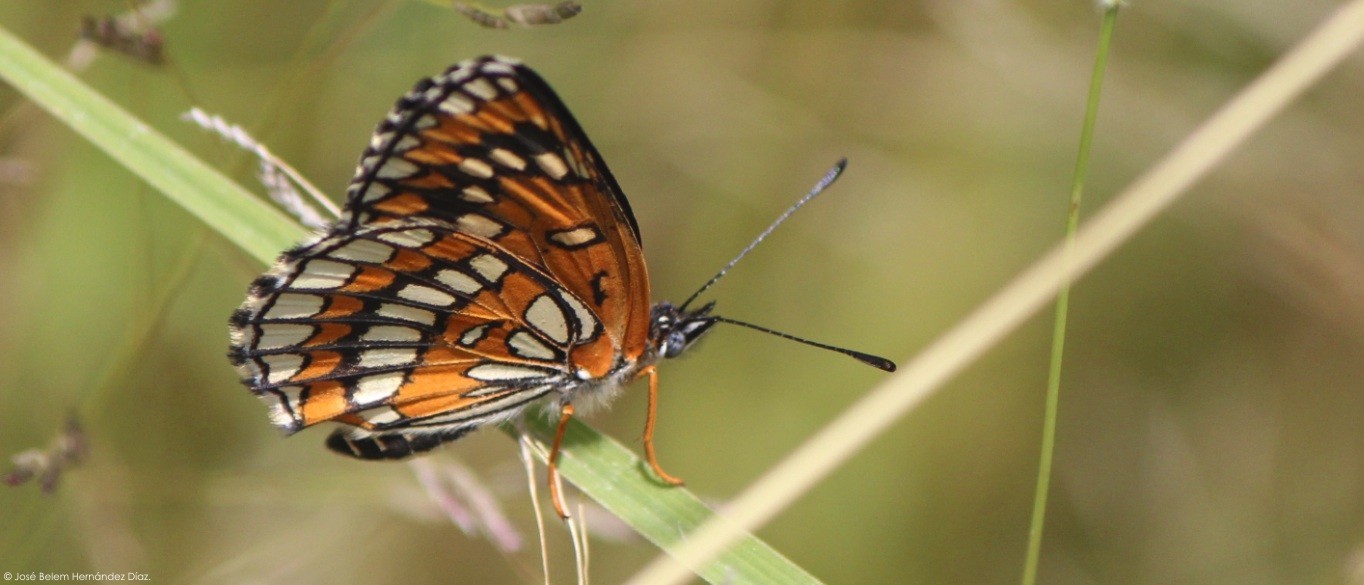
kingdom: Animalia
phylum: Arthropoda
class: Insecta
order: Lepidoptera
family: Nymphalidae
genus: Thessalia
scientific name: Thessalia theona
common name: Nymphalid moth
